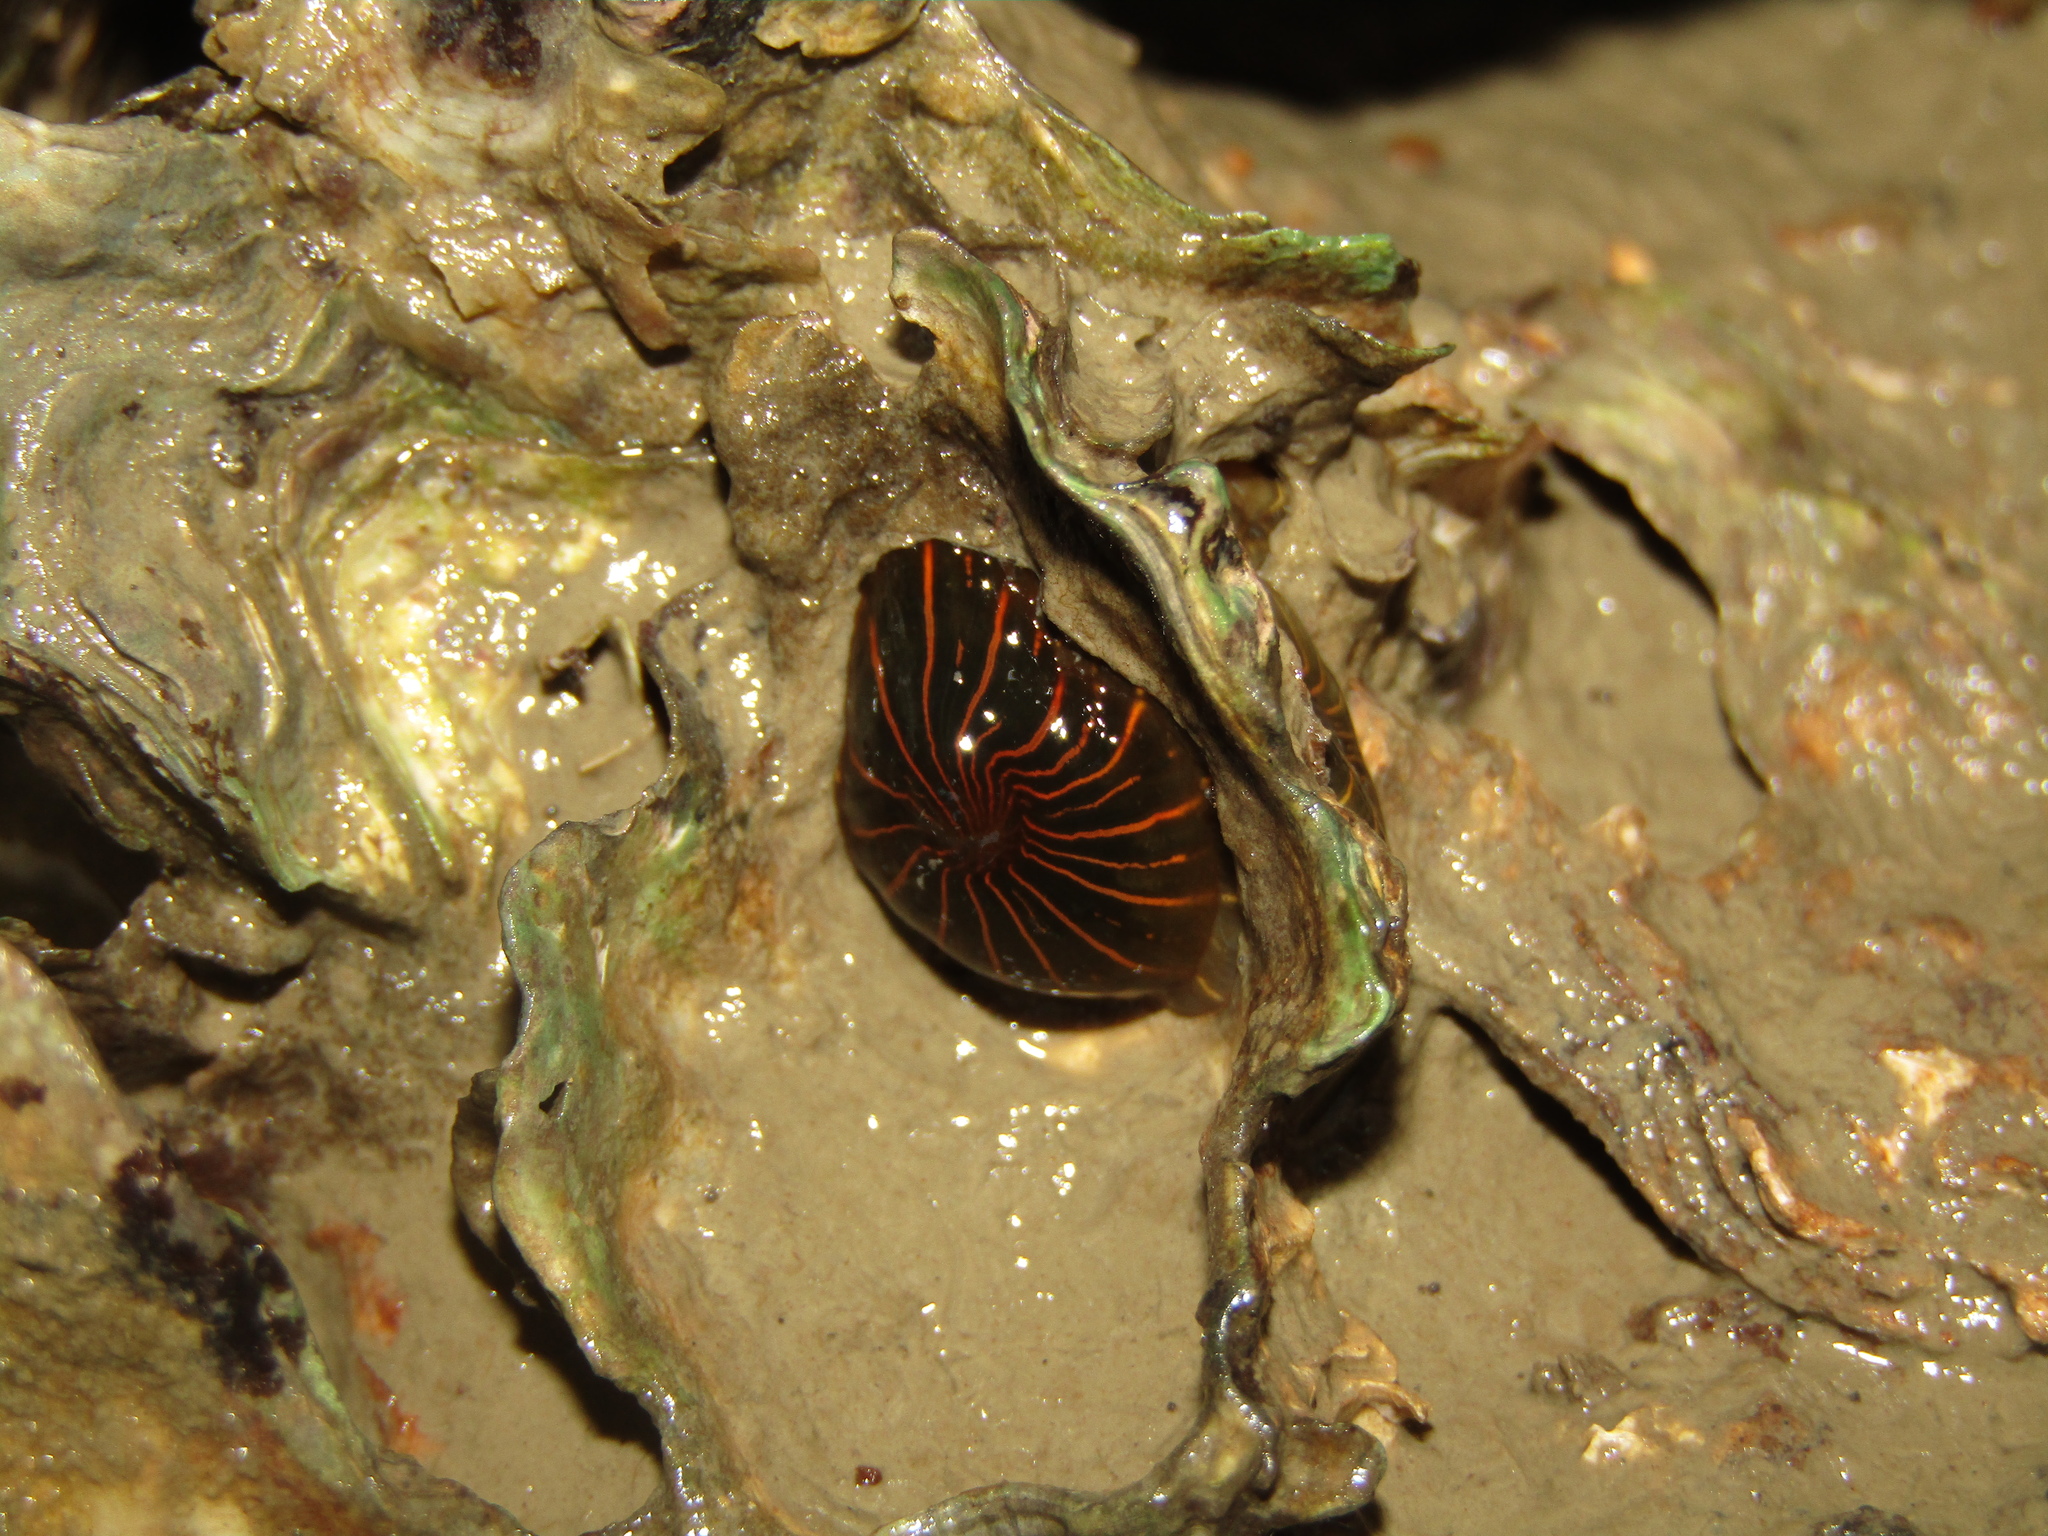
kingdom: Animalia
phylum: Cnidaria
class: Anthozoa
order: Actiniaria
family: Diadumenidae
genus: Diadumene
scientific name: Diadumene lineata
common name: Orange-striped anemone
